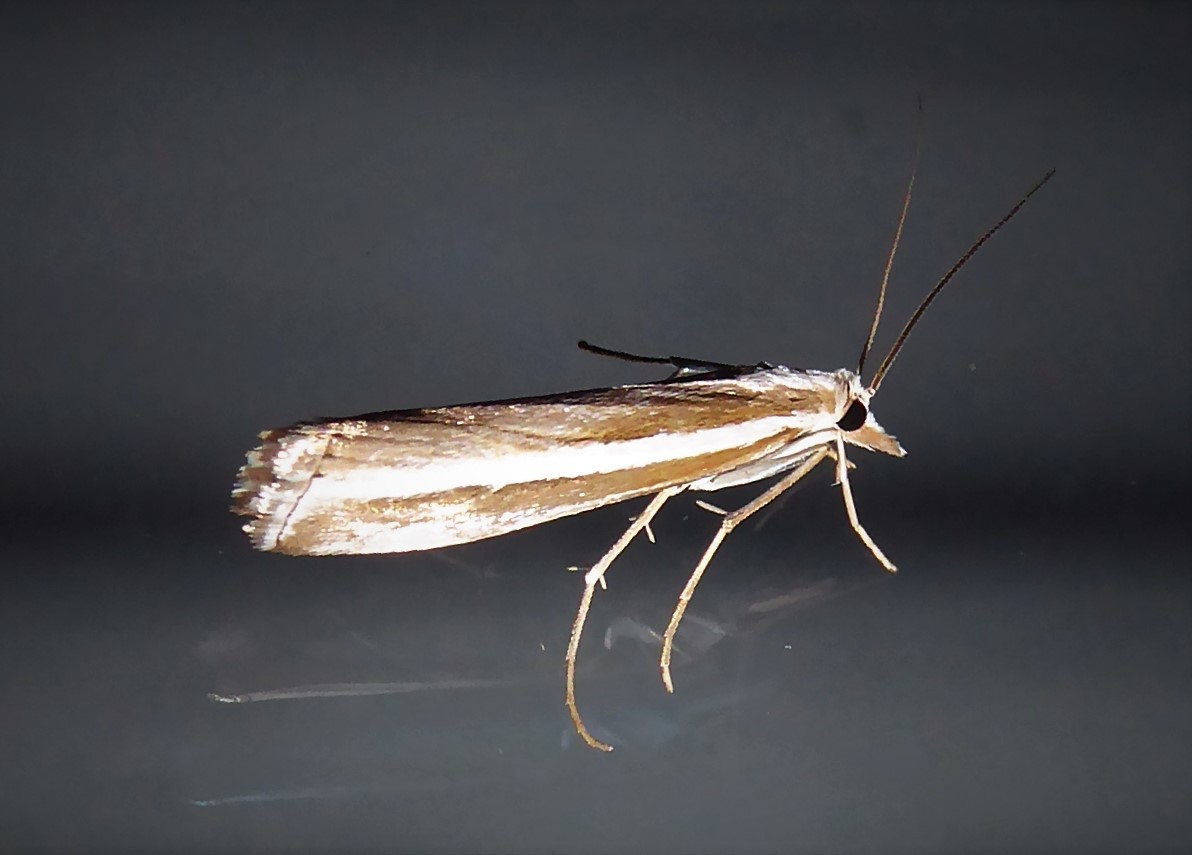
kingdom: Animalia
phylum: Arthropoda
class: Insecta
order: Lepidoptera
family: Crambidae
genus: Orocrambus
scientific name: Orocrambus vittellus
